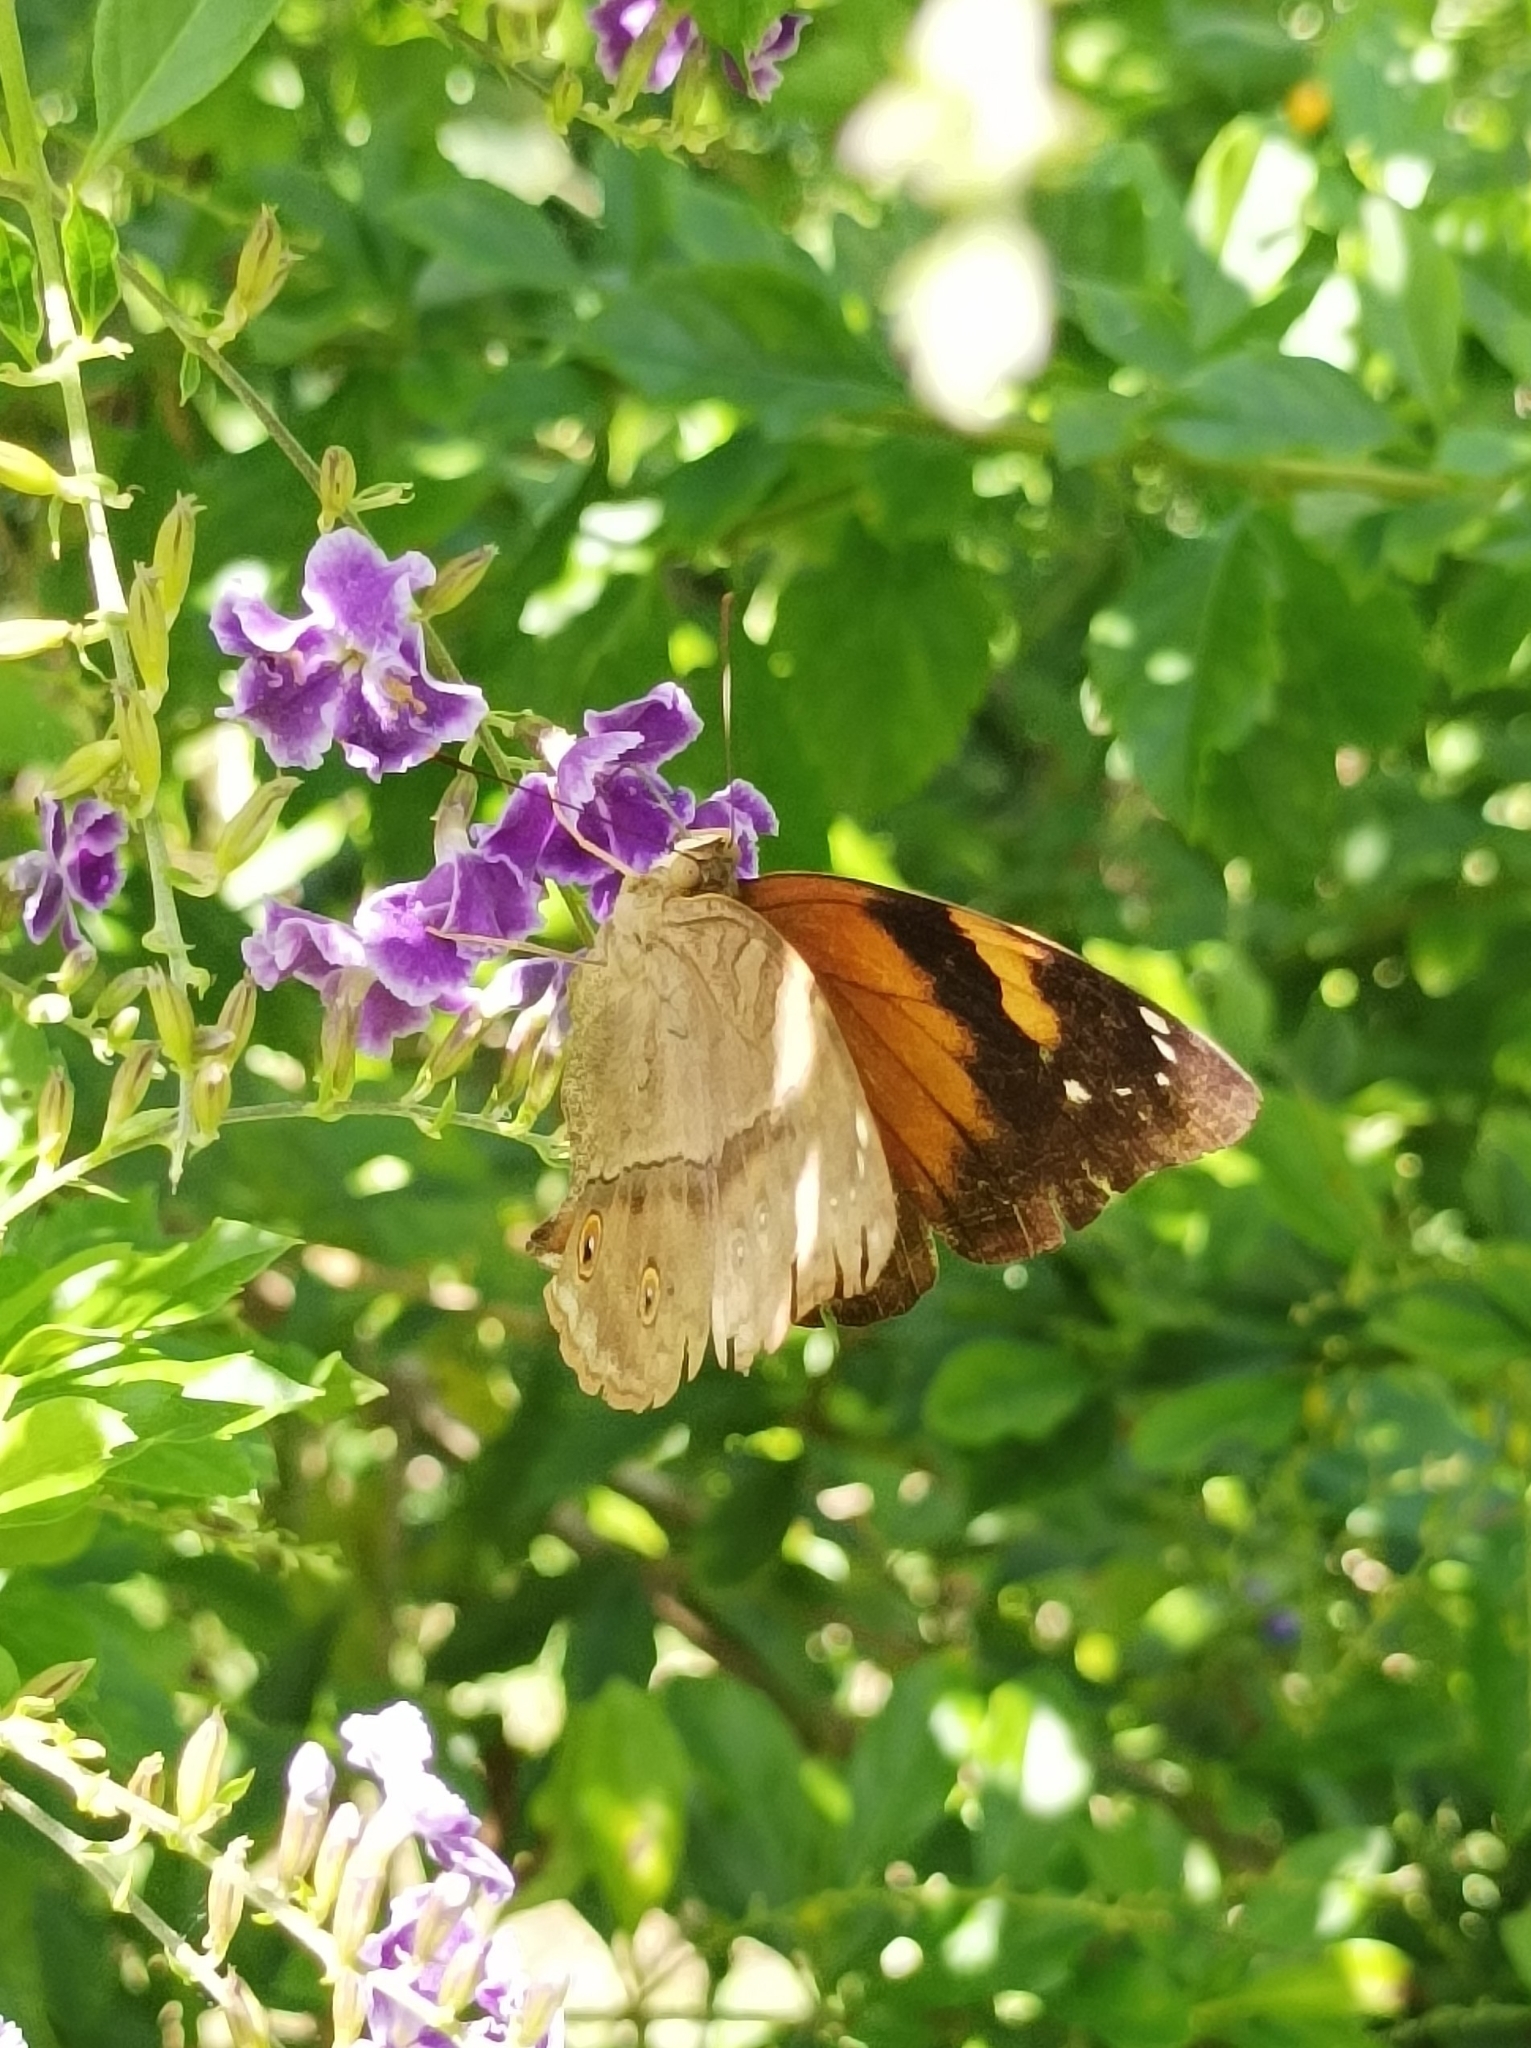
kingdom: Animalia
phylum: Arthropoda
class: Insecta
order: Lepidoptera
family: Nymphalidae
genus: Doleschallia
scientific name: Doleschallia browni
